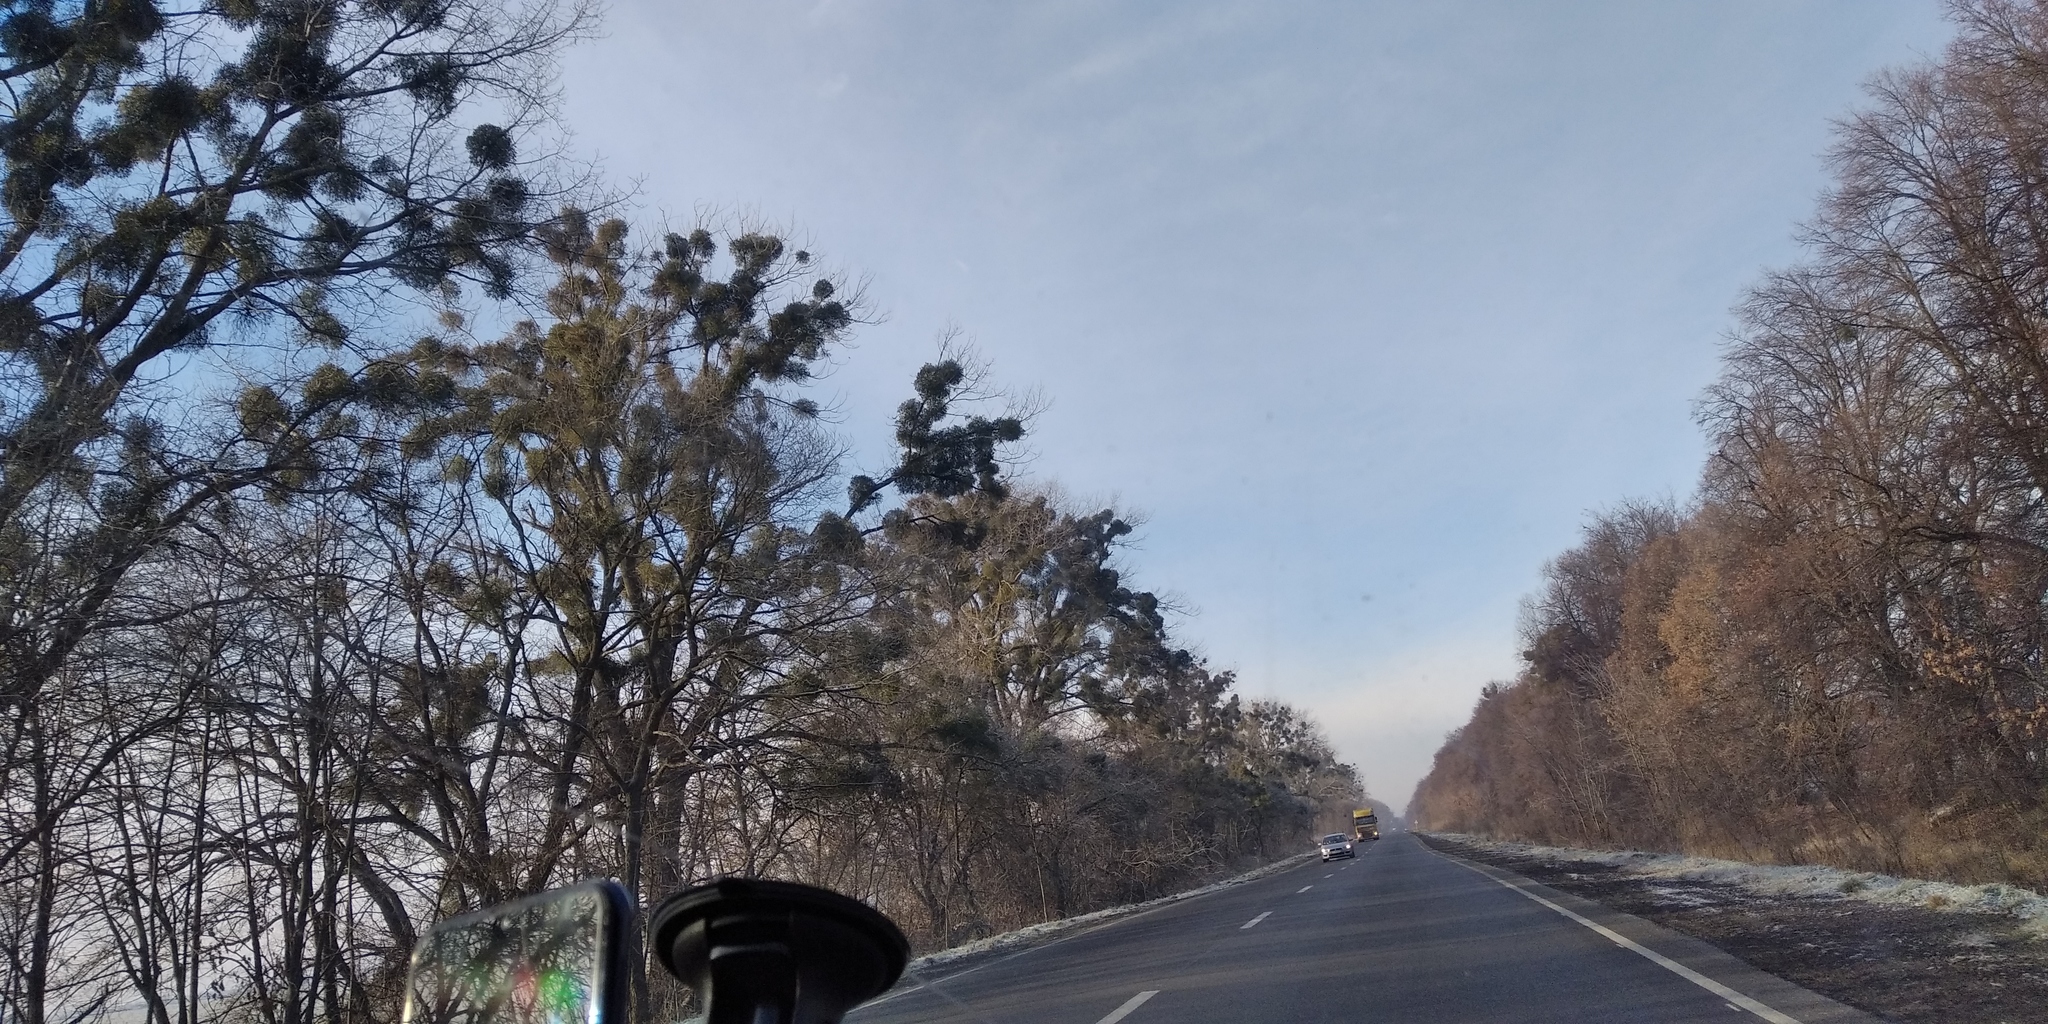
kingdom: Plantae
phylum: Tracheophyta
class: Magnoliopsida
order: Santalales
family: Viscaceae
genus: Viscum
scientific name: Viscum album
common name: Mistletoe
